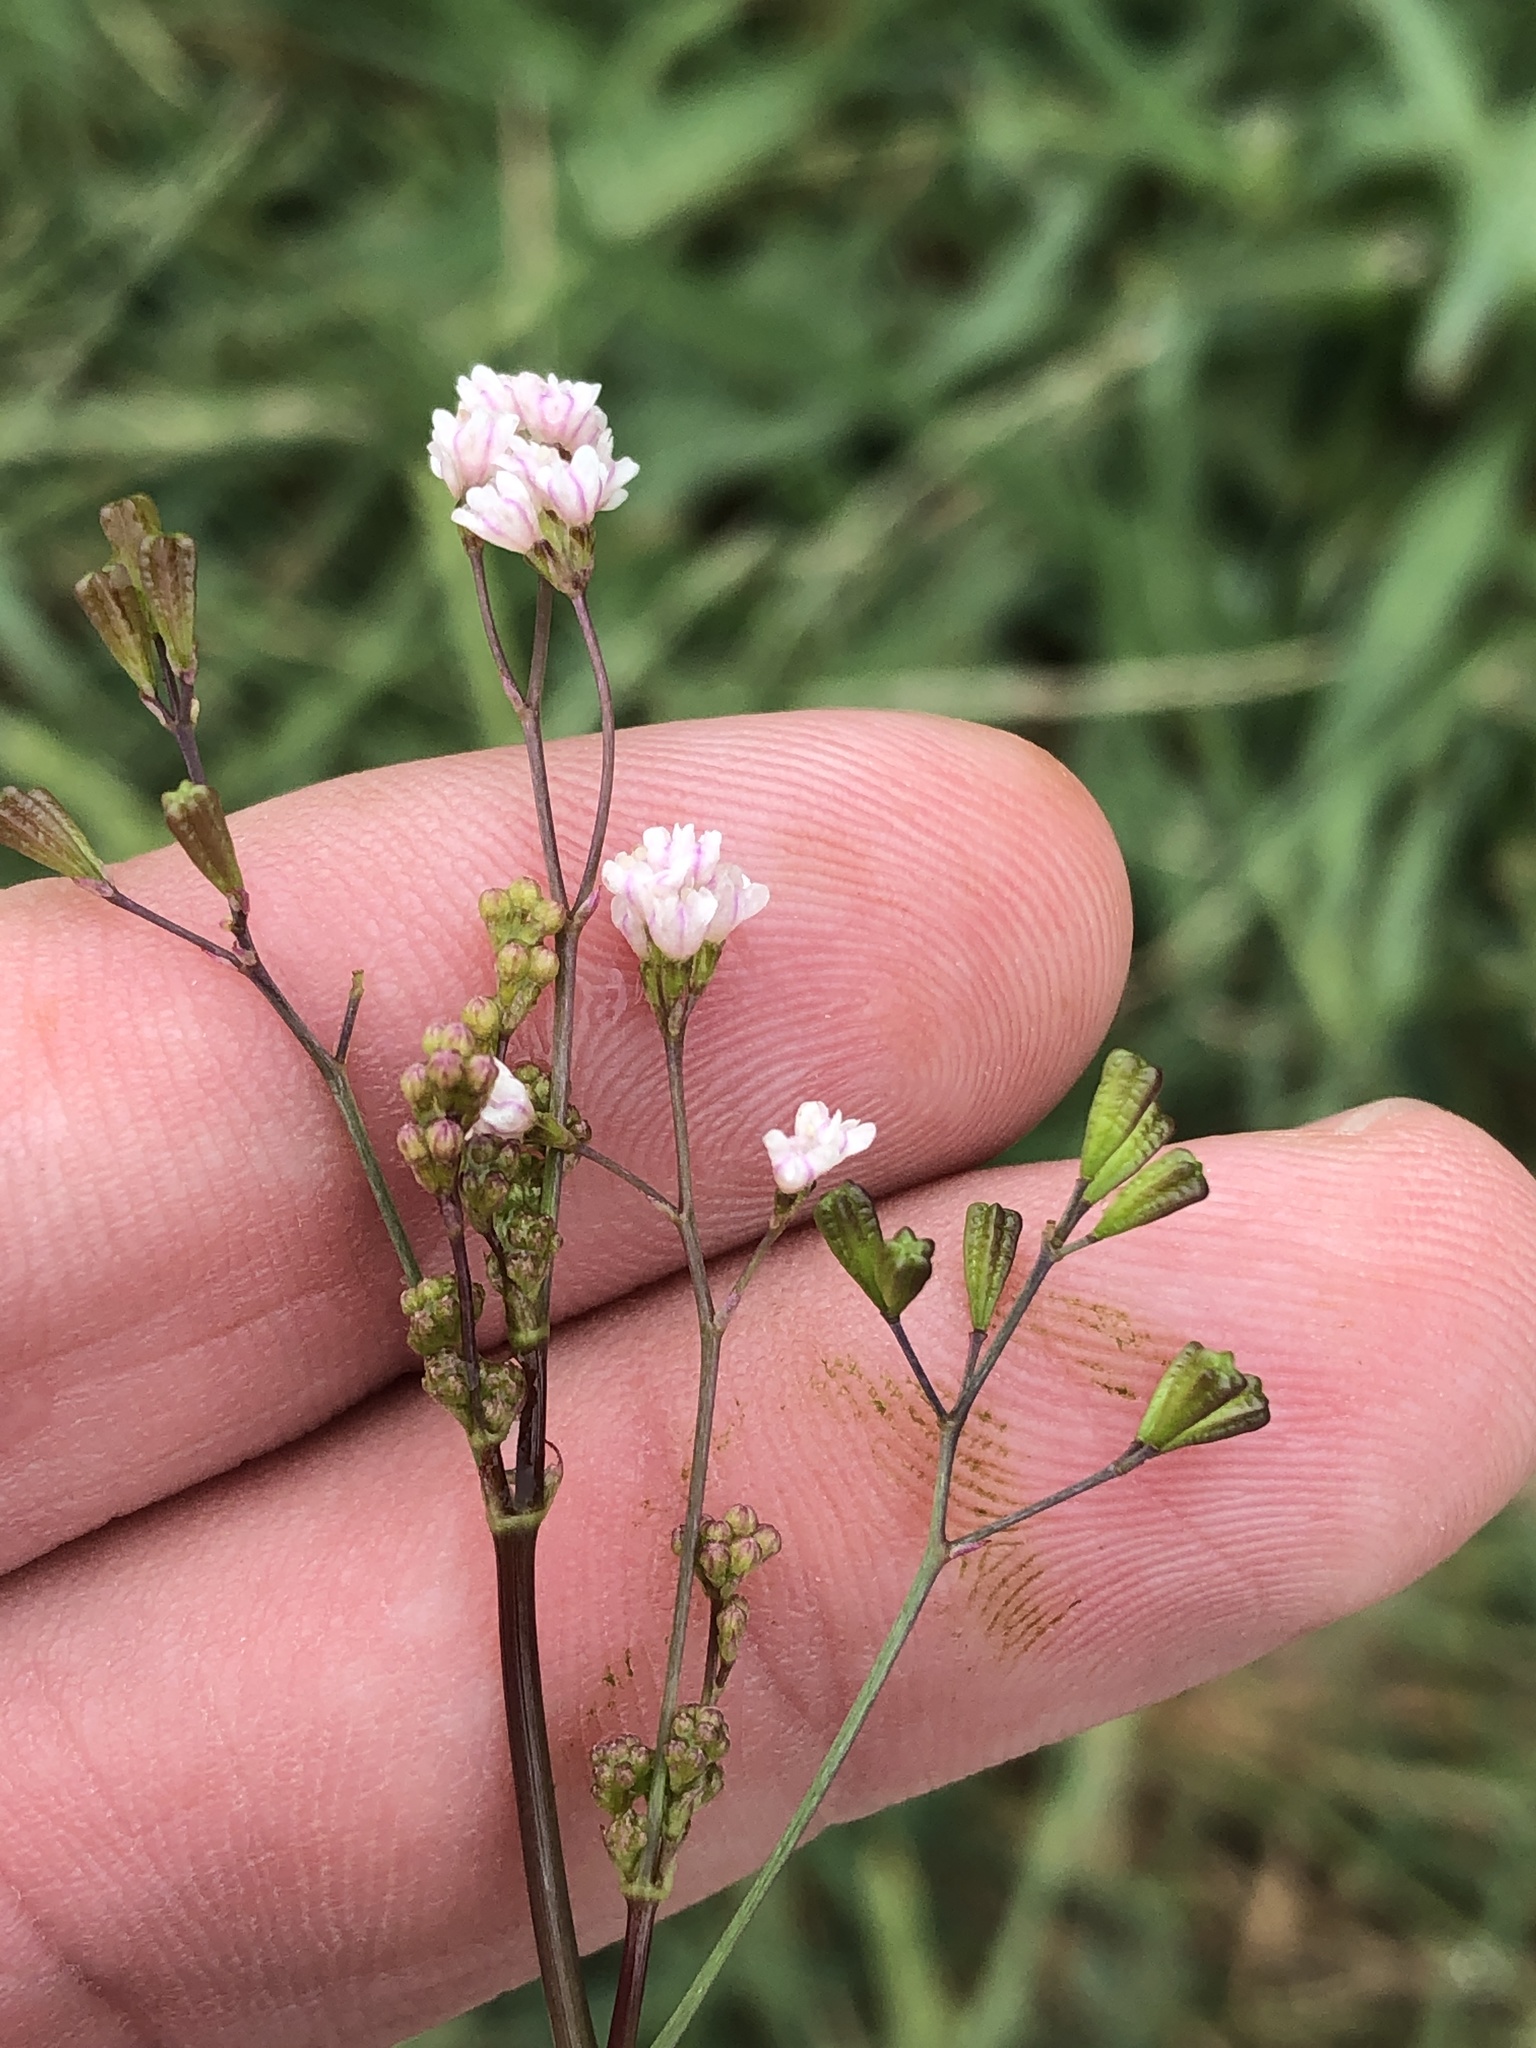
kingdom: Plantae
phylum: Tracheophyta
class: Magnoliopsida
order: Caryophyllales
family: Nyctaginaceae
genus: Boerhavia
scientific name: Boerhavia erecta
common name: Erect spiderling
